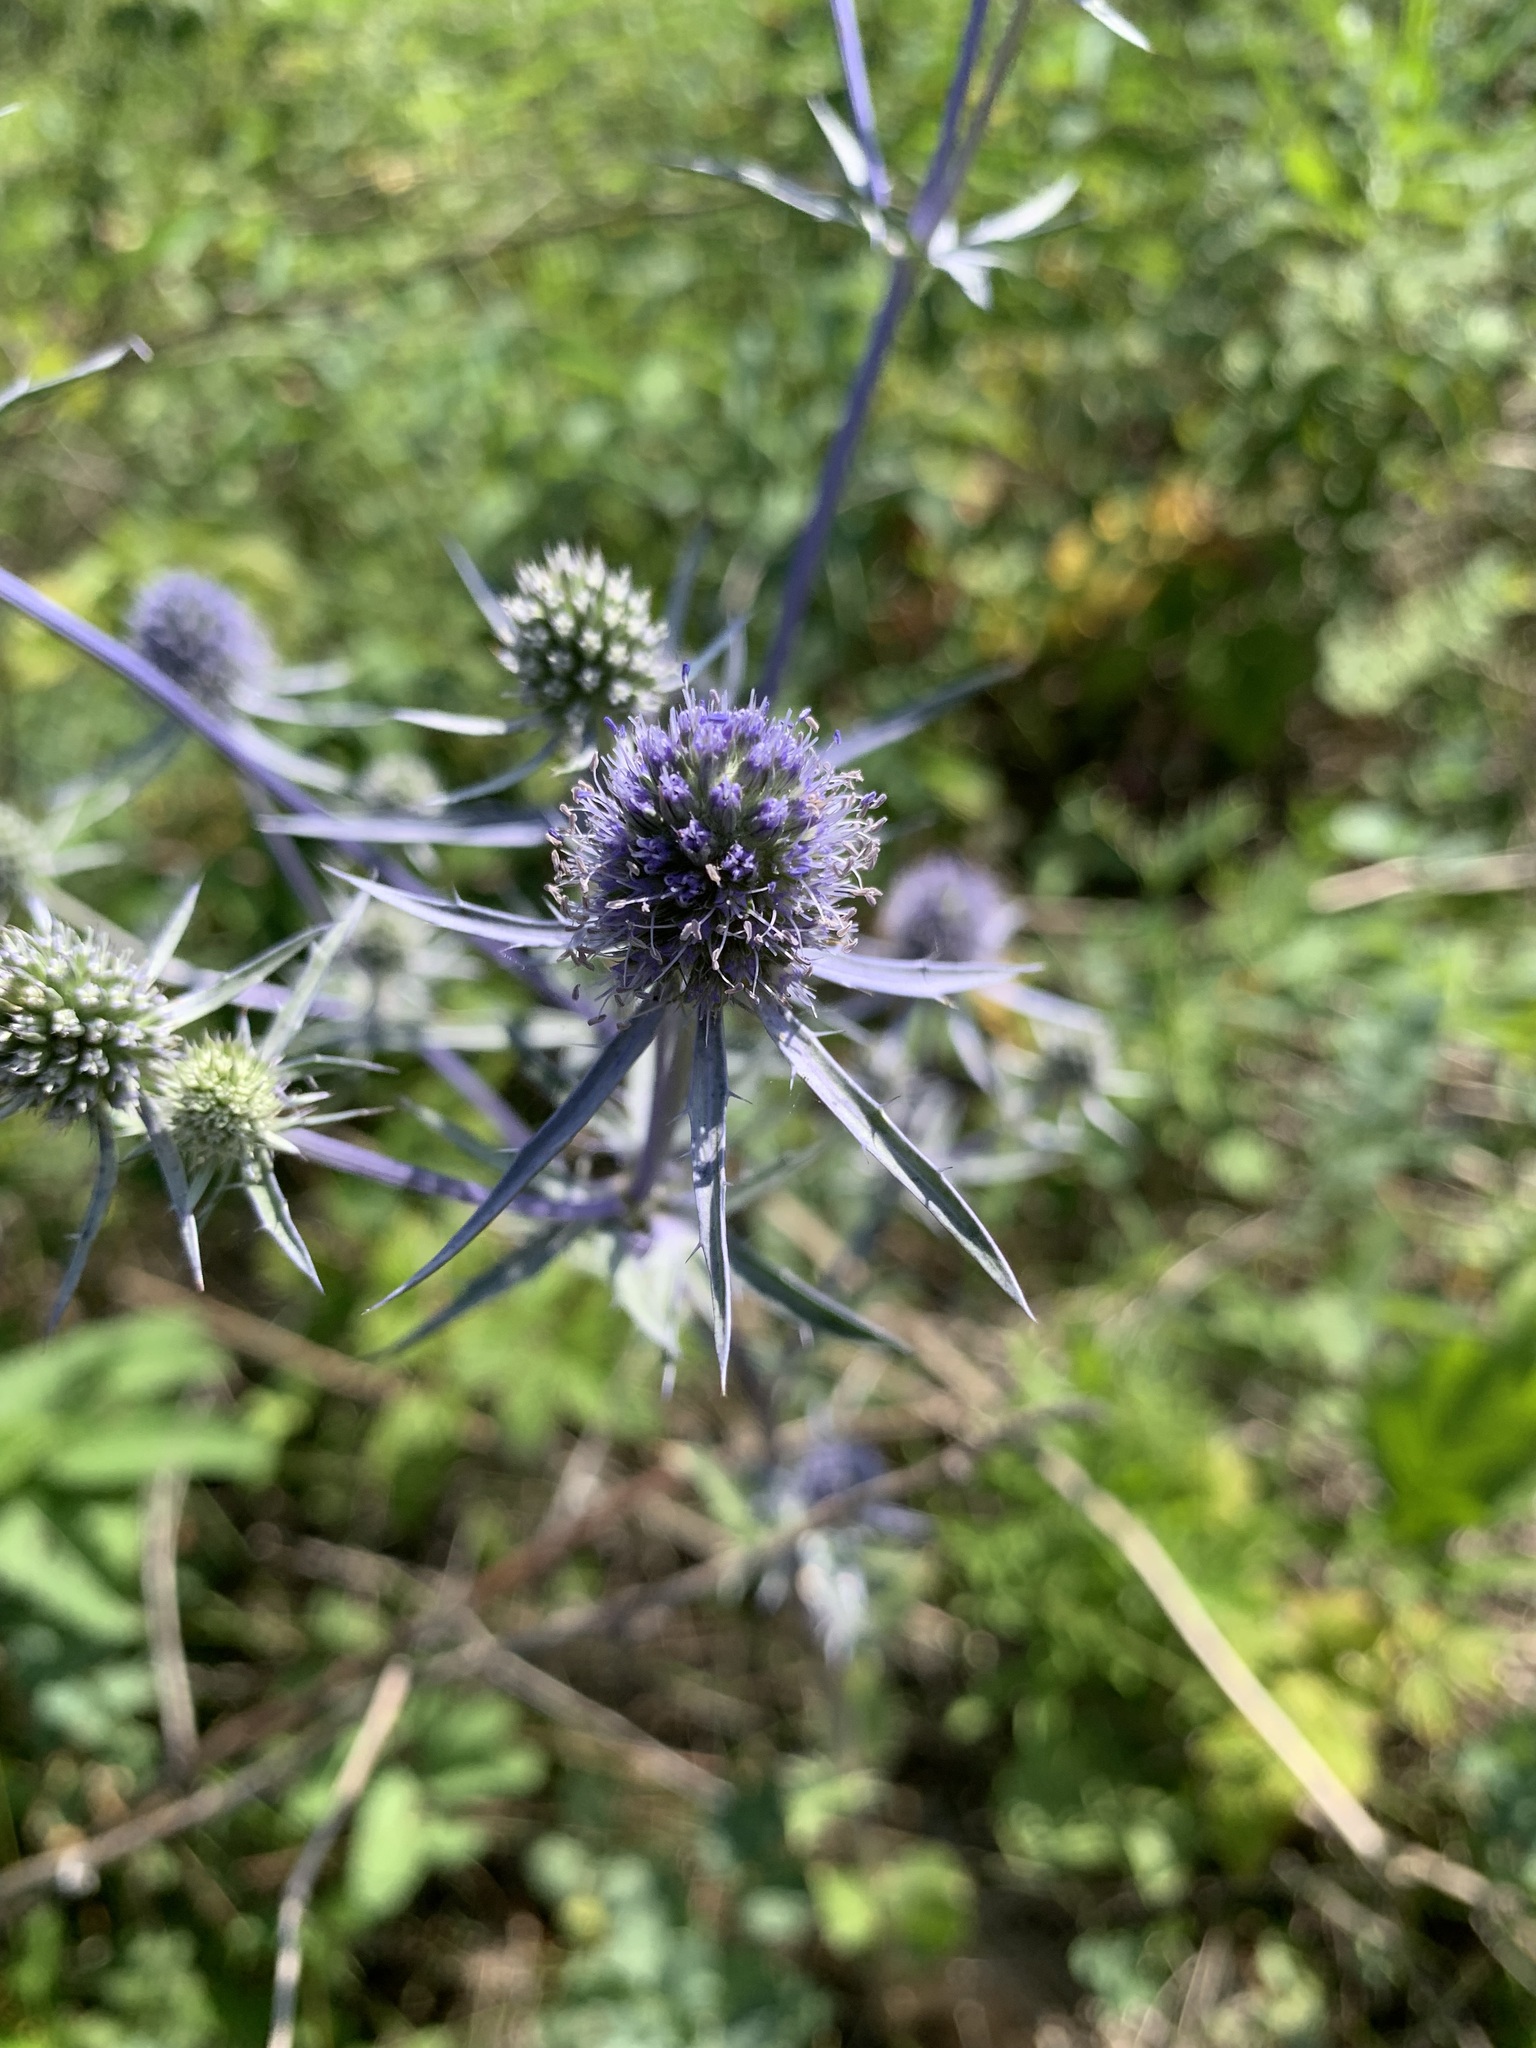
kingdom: Plantae
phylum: Tracheophyta
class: Magnoliopsida
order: Apiales
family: Apiaceae
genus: Eryngium
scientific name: Eryngium planum
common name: Blue eryngo
